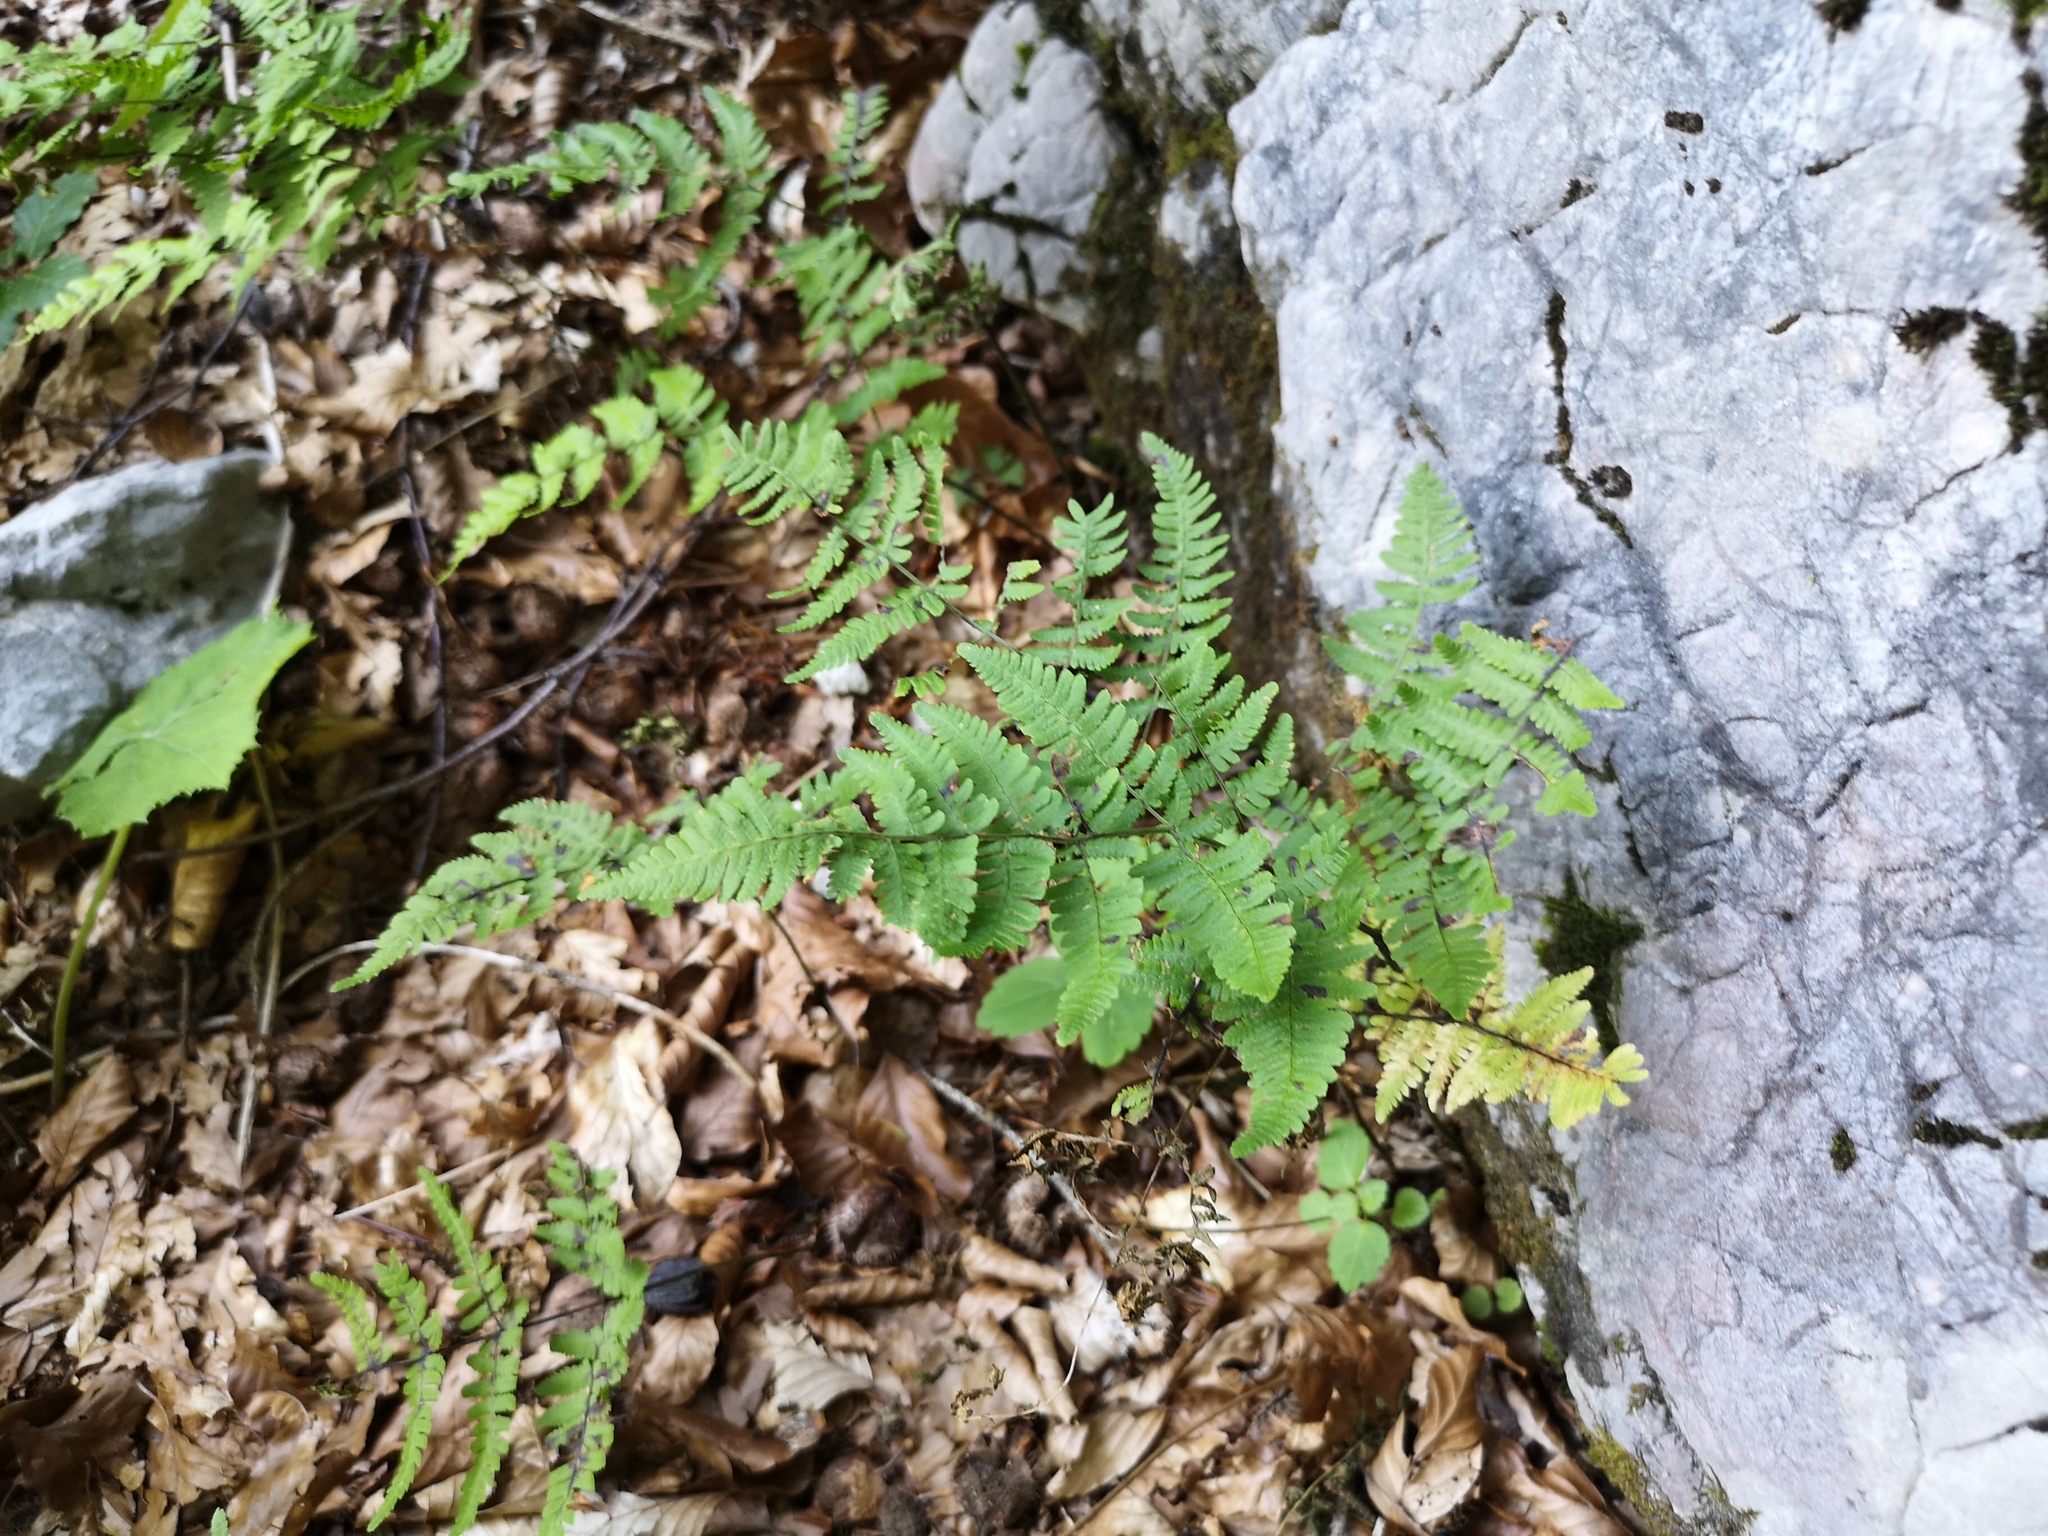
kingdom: Plantae
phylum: Tracheophyta
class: Polypodiopsida
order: Polypodiales
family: Cystopteridaceae
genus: Gymnocarpium
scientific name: Gymnocarpium robertianum
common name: Limestone fern
